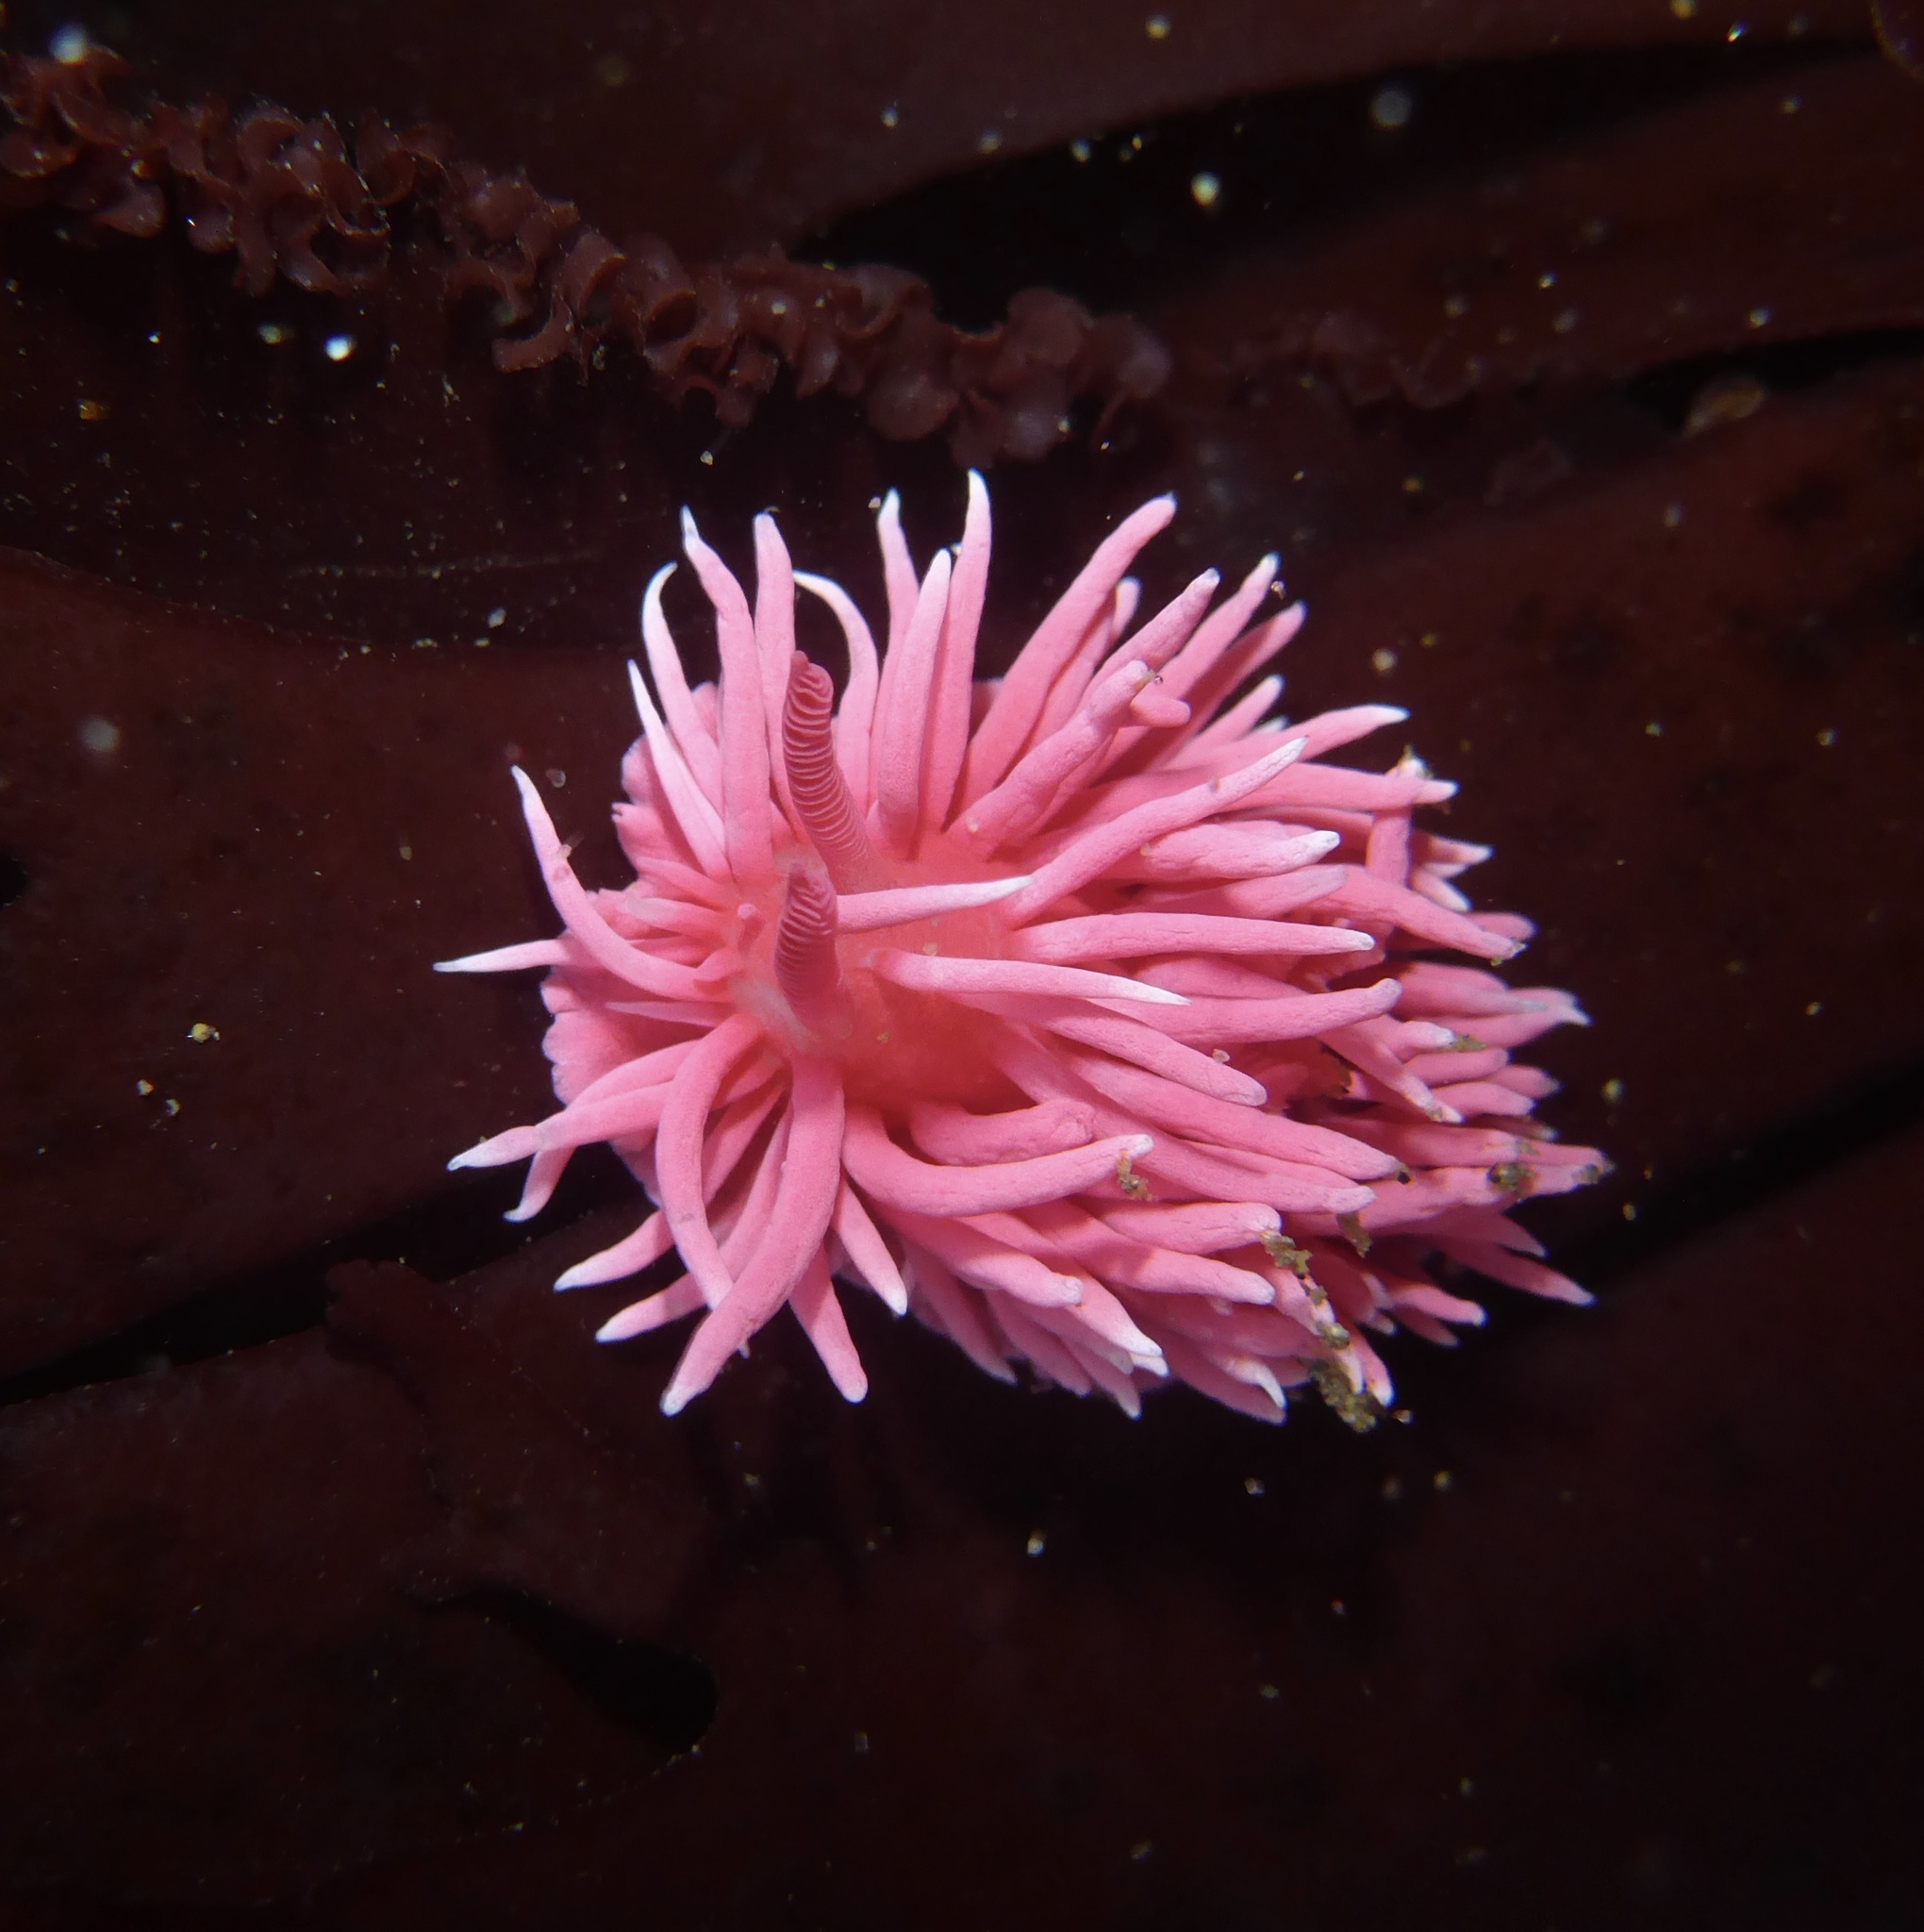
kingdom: Animalia
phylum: Mollusca
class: Gastropoda
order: Nudibranchia
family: Goniodorididae
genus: Okenia
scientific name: Okenia
